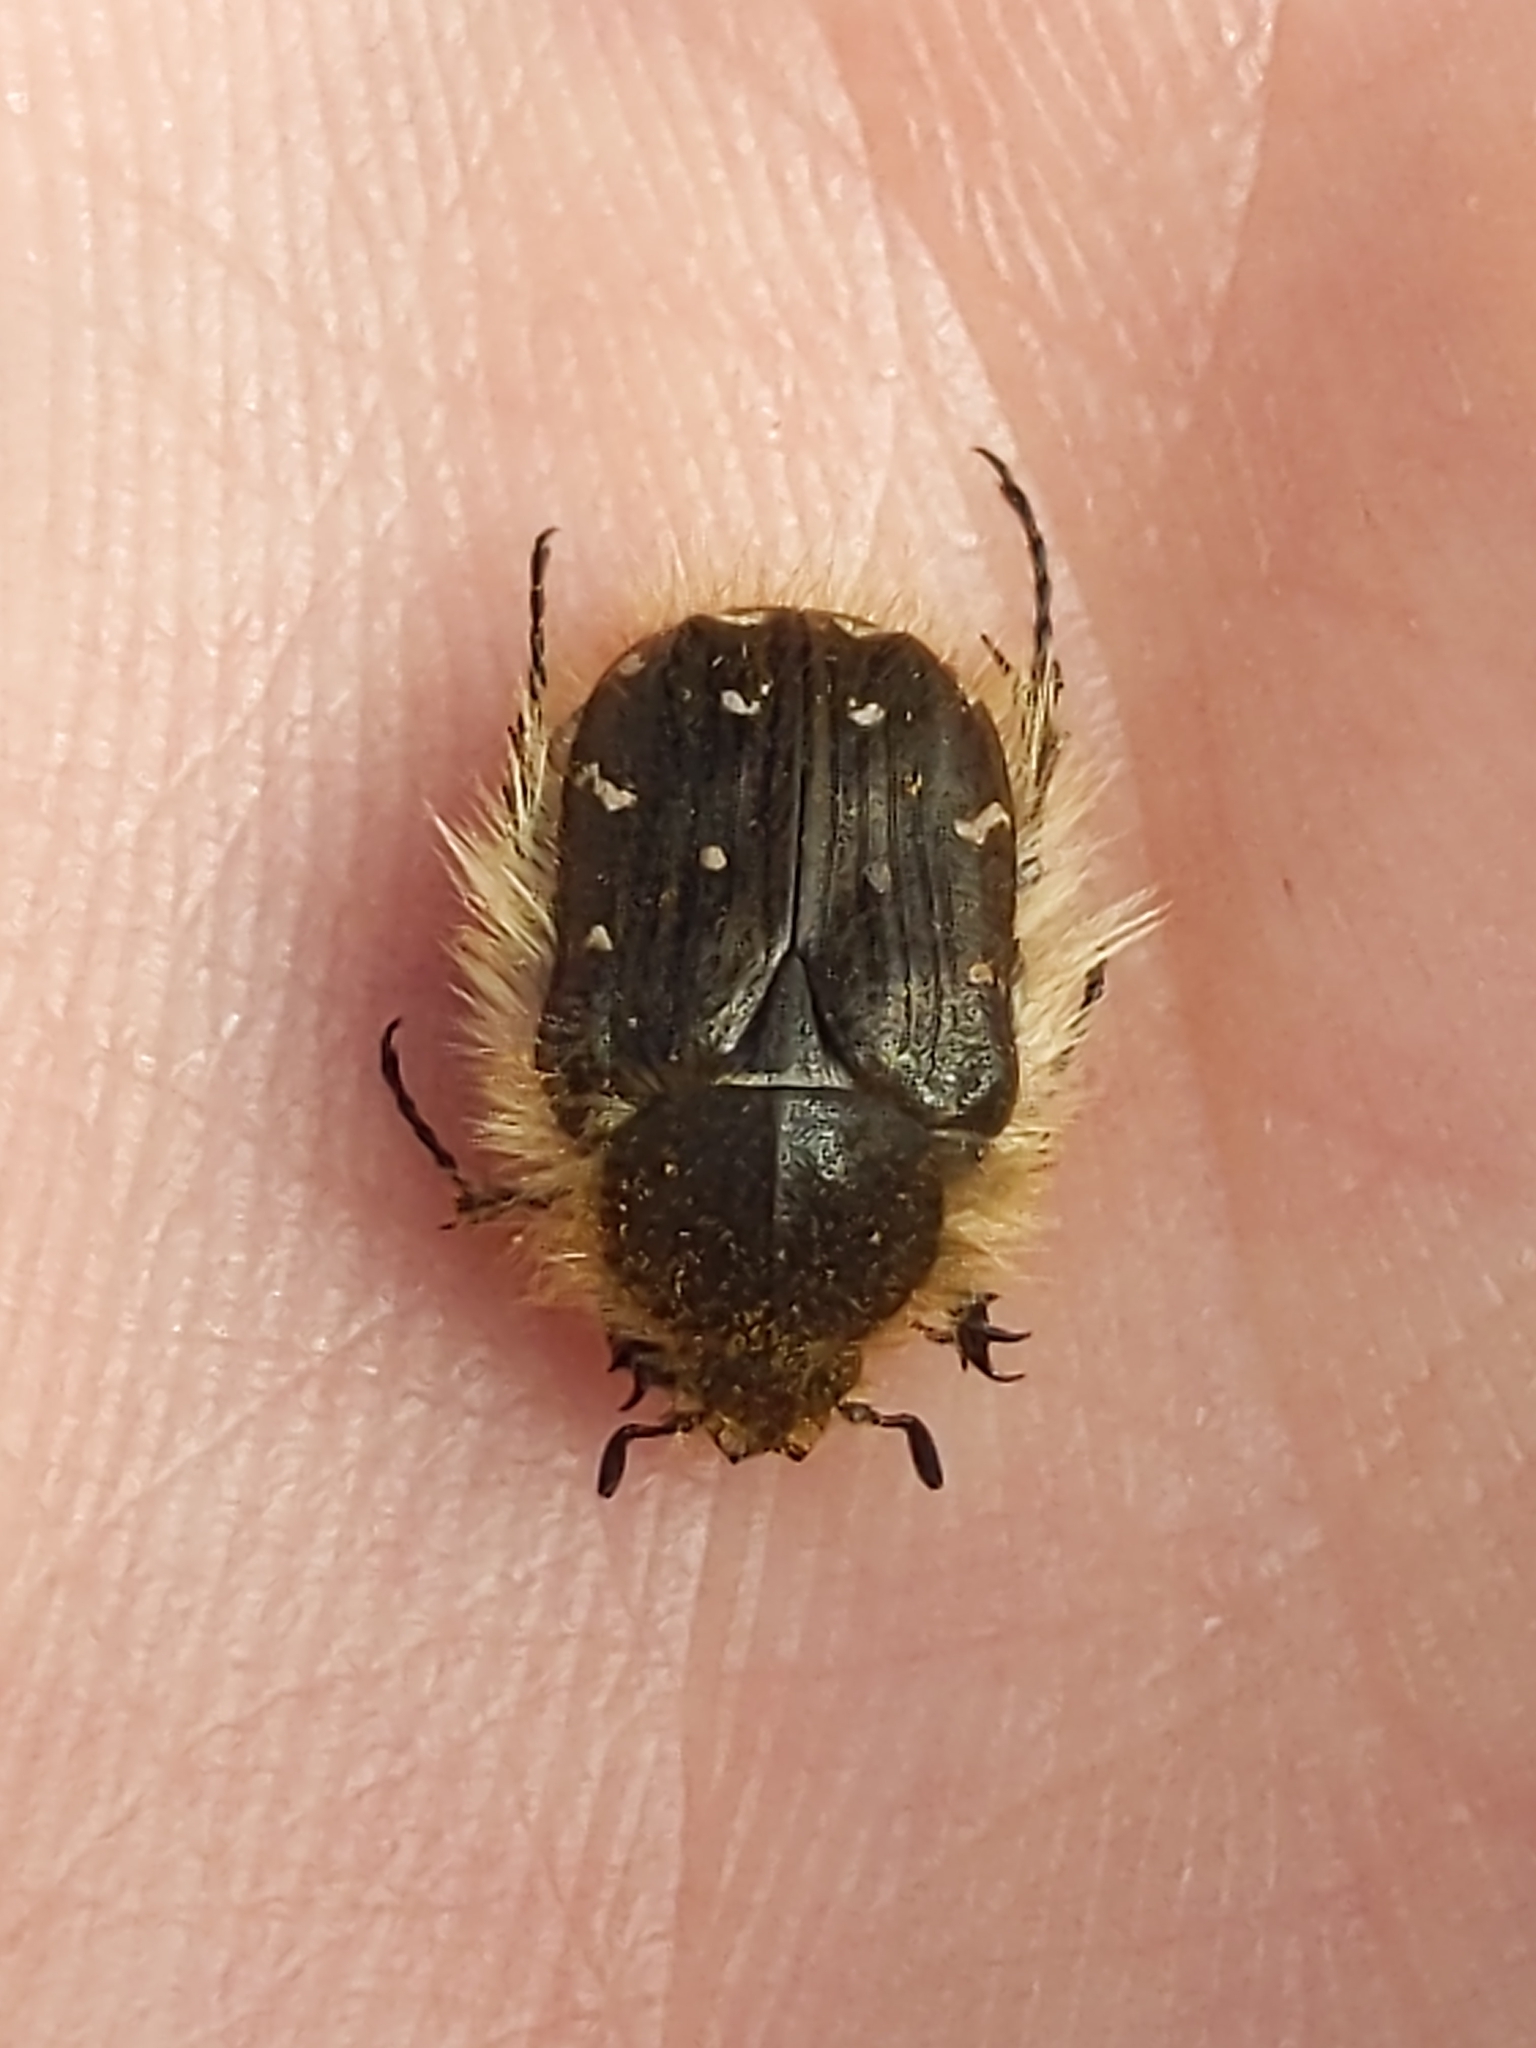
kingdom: Animalia
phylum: Arthropoda
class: Insecta
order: Coleoptera
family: Scarabaeidae
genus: Tropinota
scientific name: Tropinota hirta
